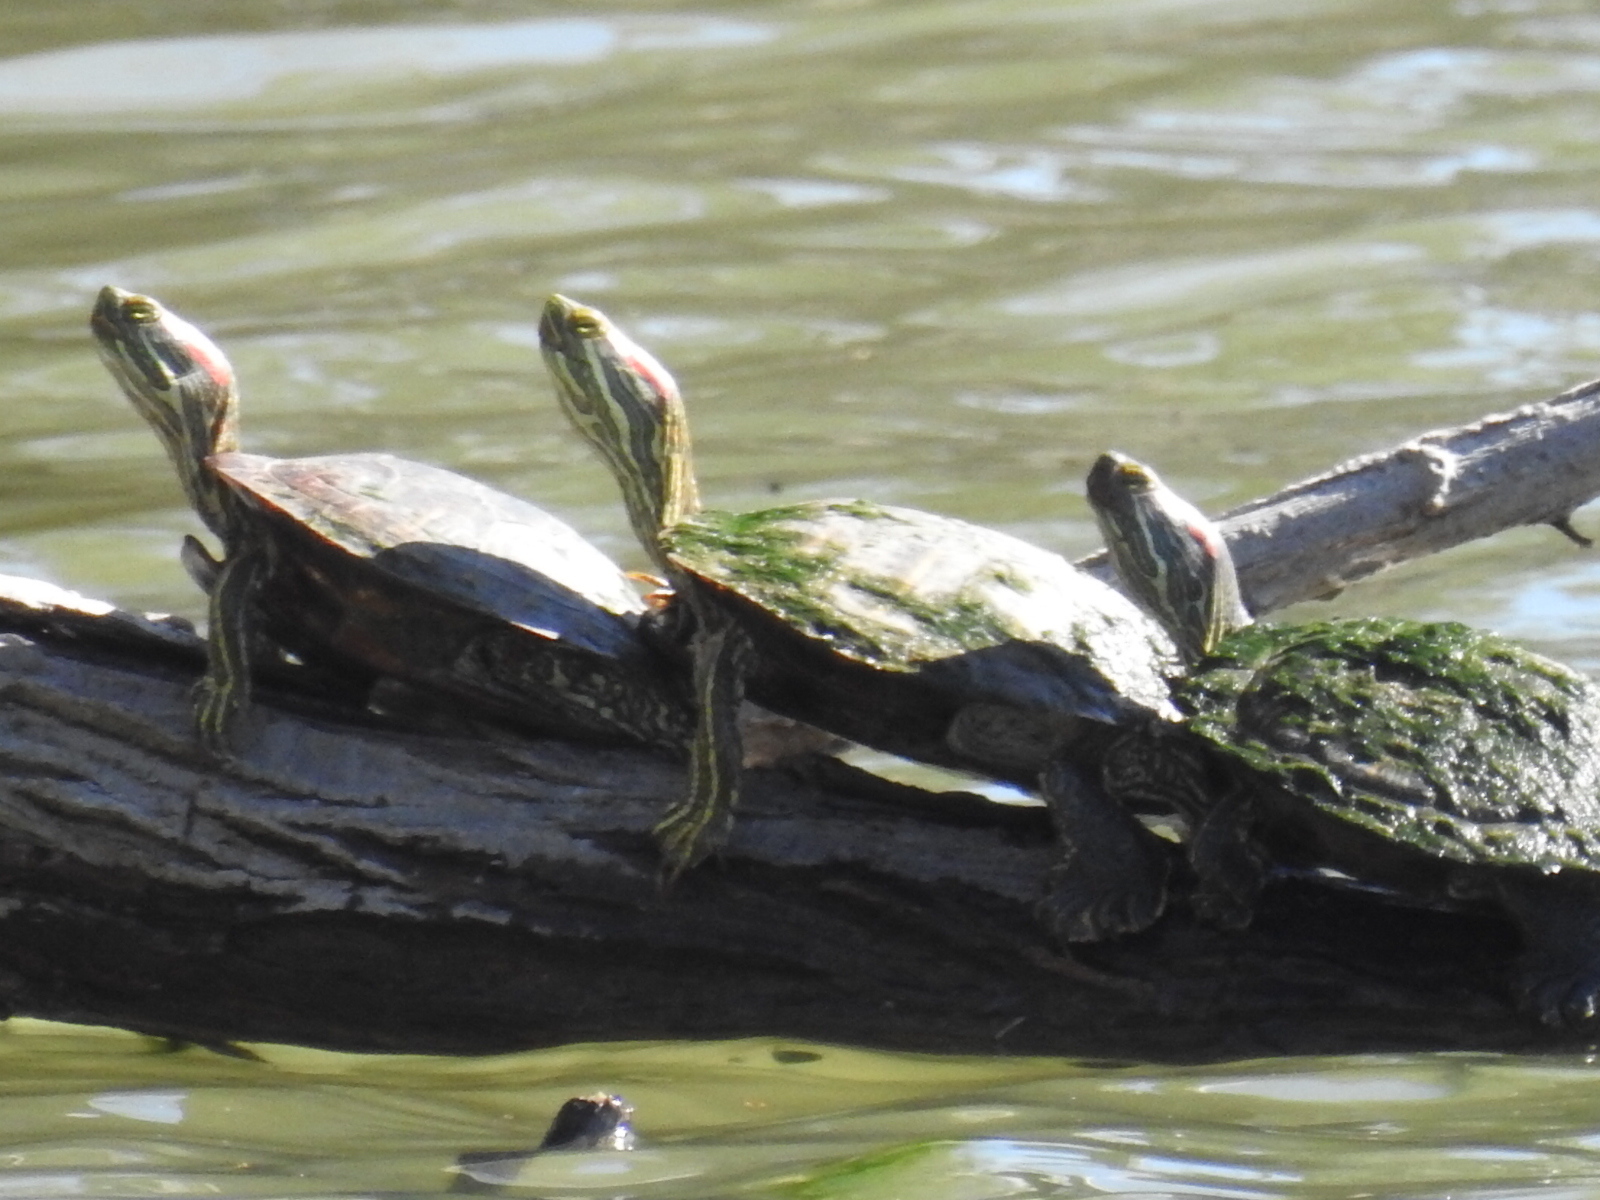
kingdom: Animalia
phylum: Chordata
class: Testudines
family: Emydidae
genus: Trachemys
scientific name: Trachemys scripta
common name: Slider
